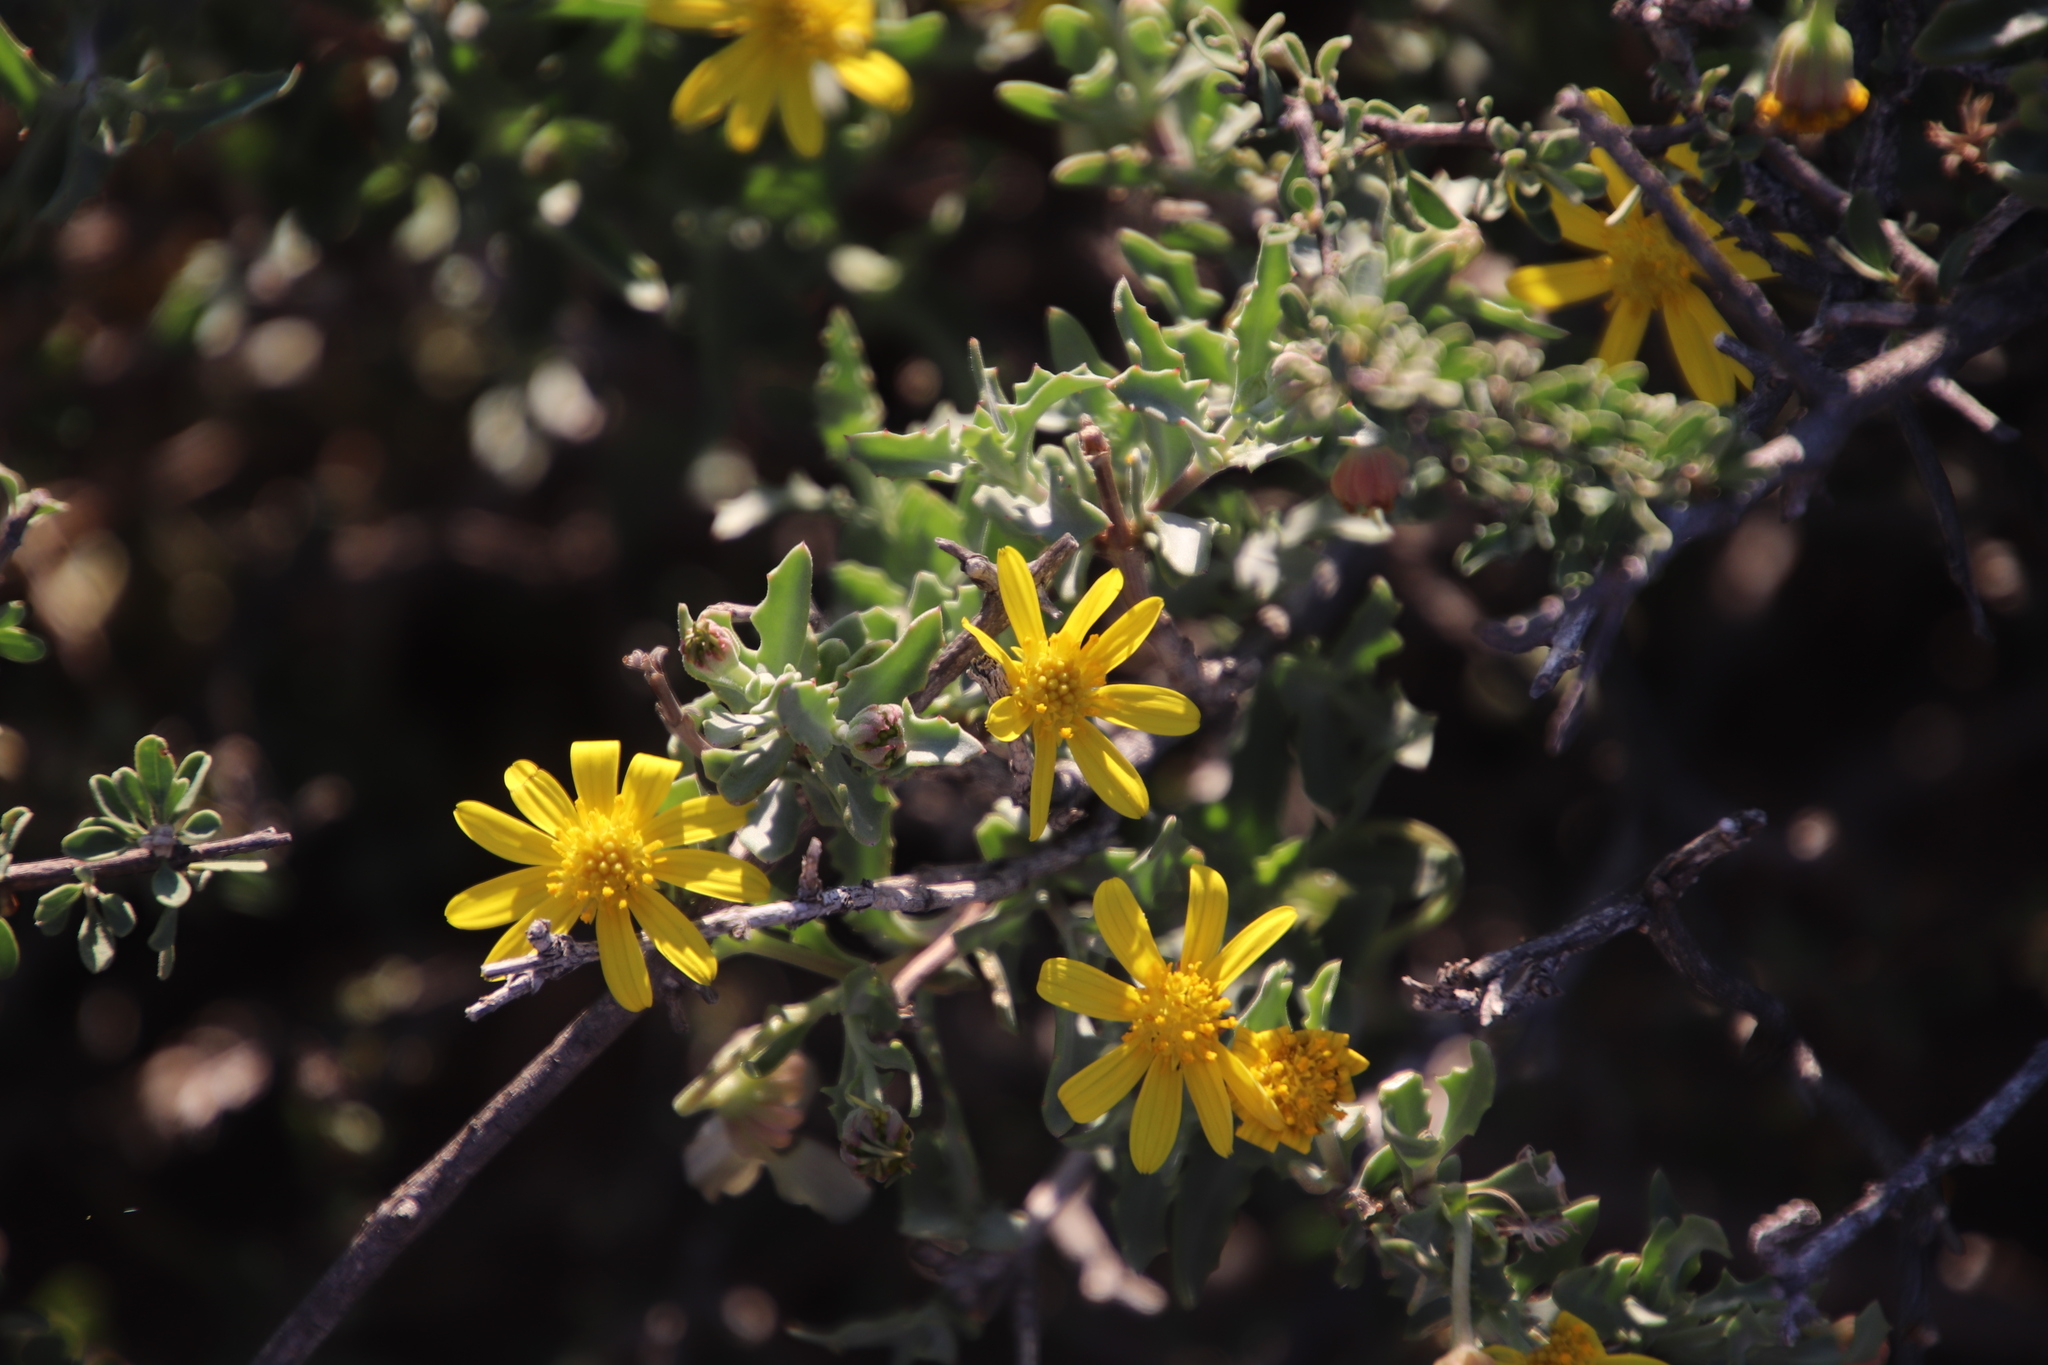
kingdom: Plantae
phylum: Tracheophyta
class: Magnoliopsida
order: Asterales
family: Asteraceae
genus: Osteospermum
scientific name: Osteospermum sinuatum
